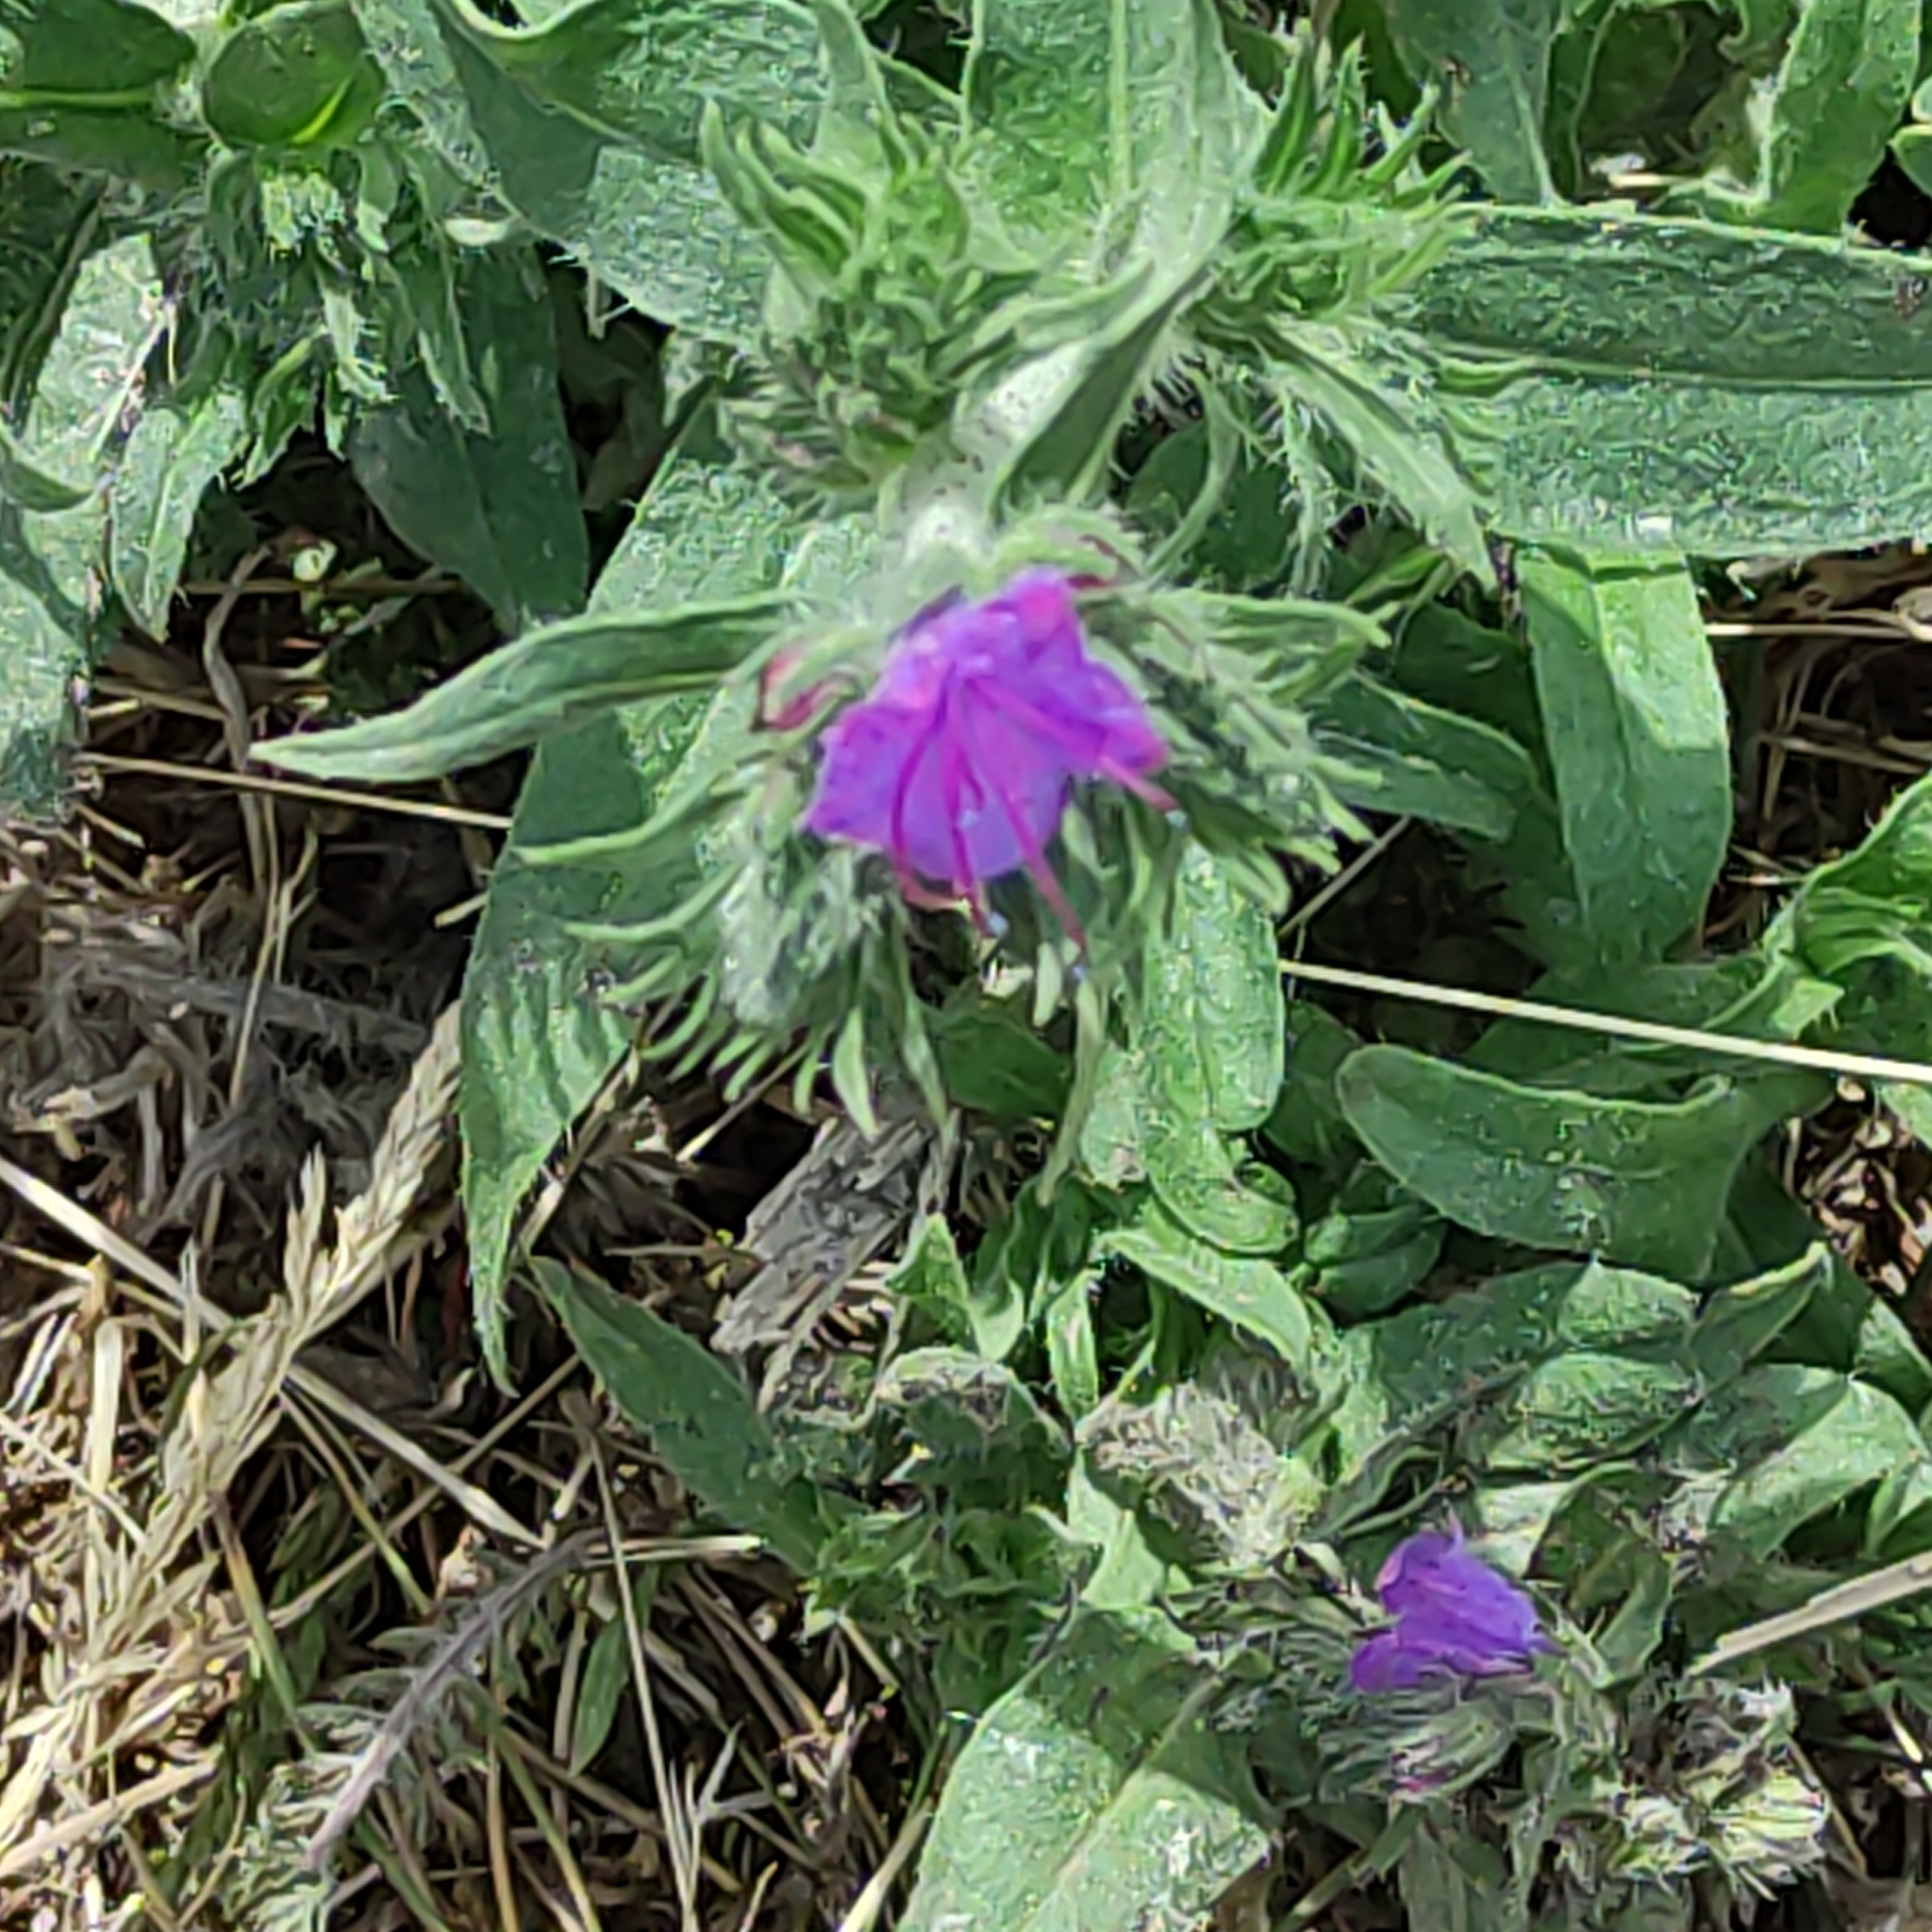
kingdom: Plantae
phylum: Tracheophyta
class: Magnoliopsida
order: Boraginales
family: Boraginaceae
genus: Echium
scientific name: Echium vulgare
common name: Common viper's bugloss
